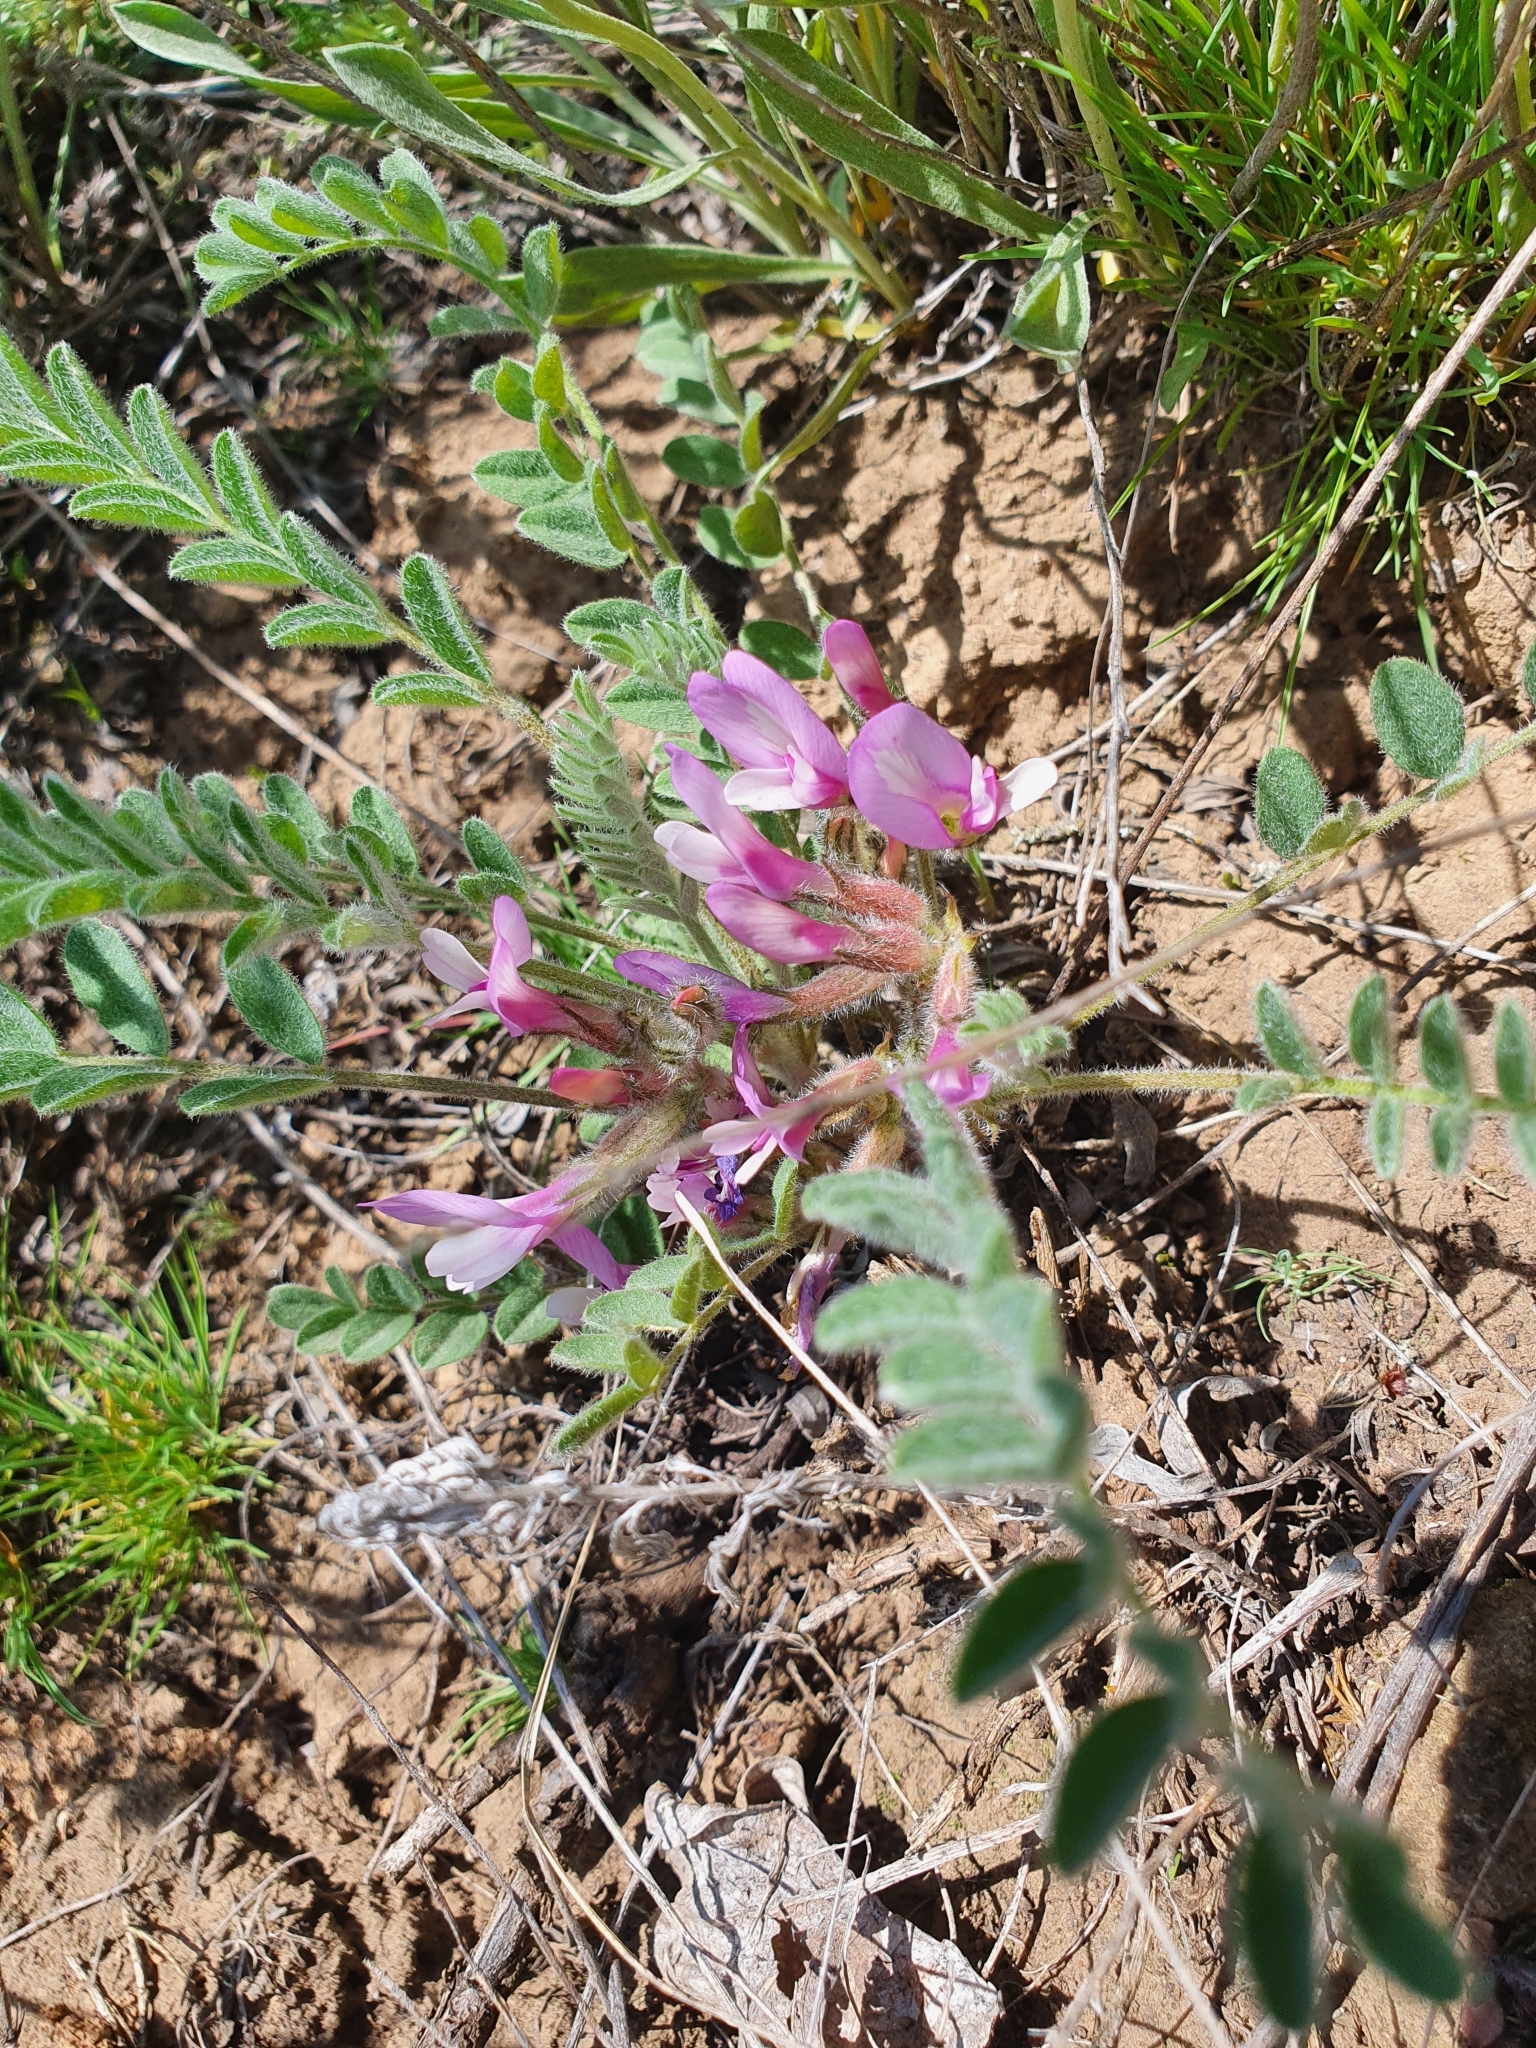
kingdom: Plantae
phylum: Tracheophyta
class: Magnoliopsida
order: Fabales
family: Fabaceae
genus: Astragalus
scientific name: Astragalus testiculatus
